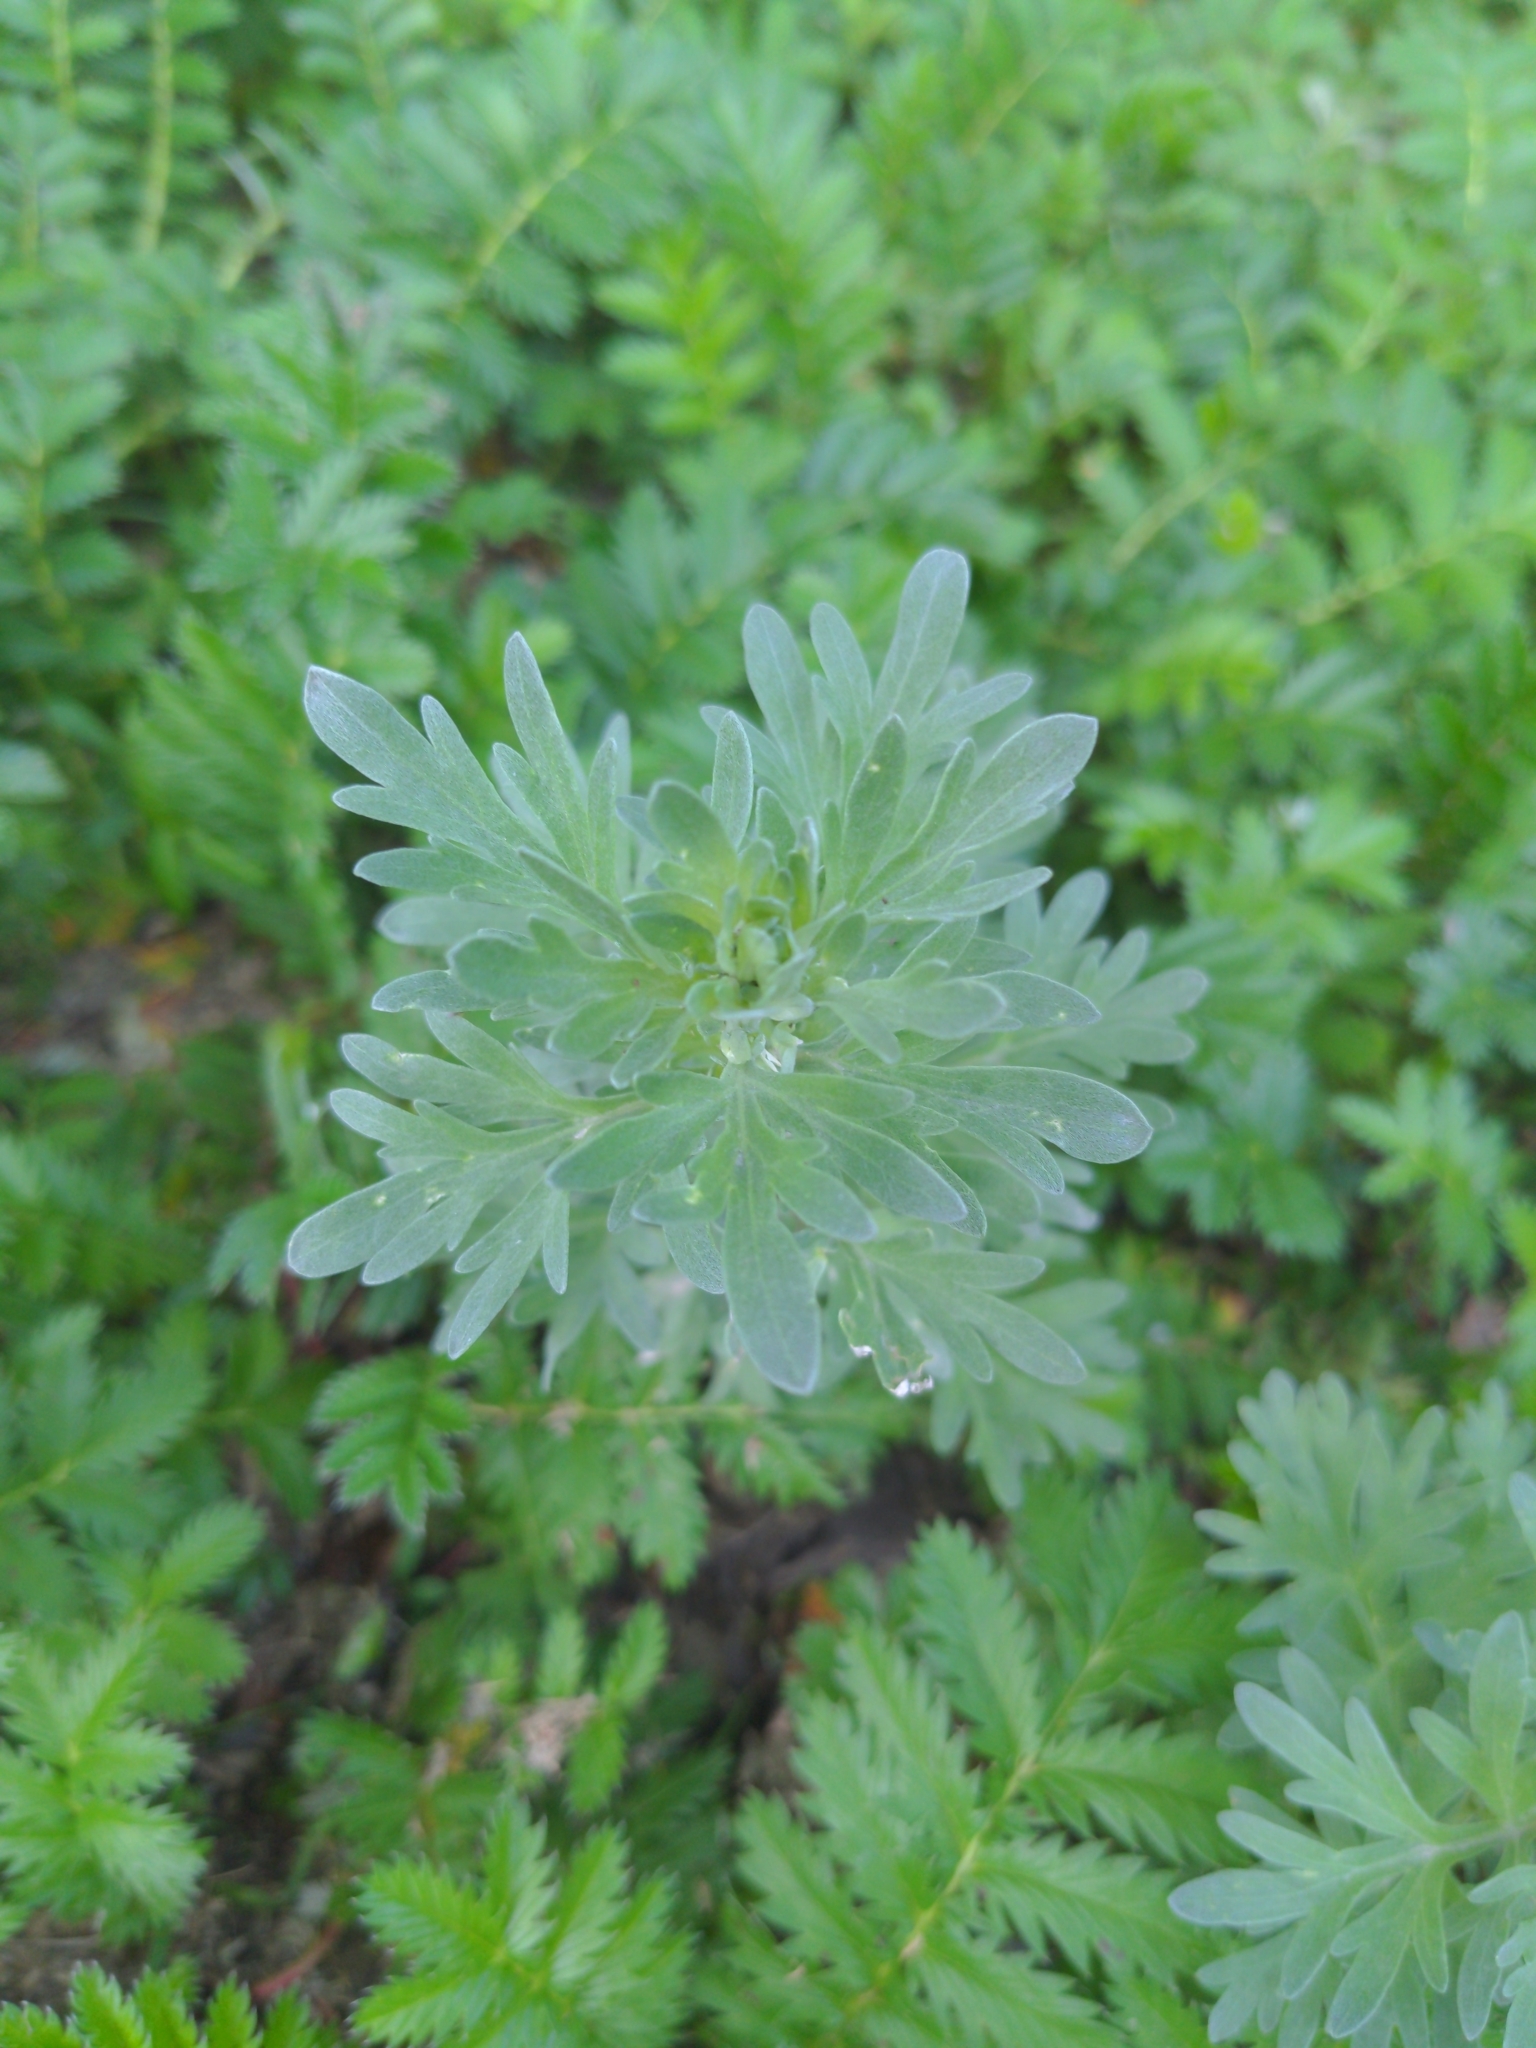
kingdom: Plantae
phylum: Tracheophyta
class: Magnoliopsida
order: Asterales
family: Asteraceae
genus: Artemisia
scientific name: Artemisia absinthium
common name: Wormwood
